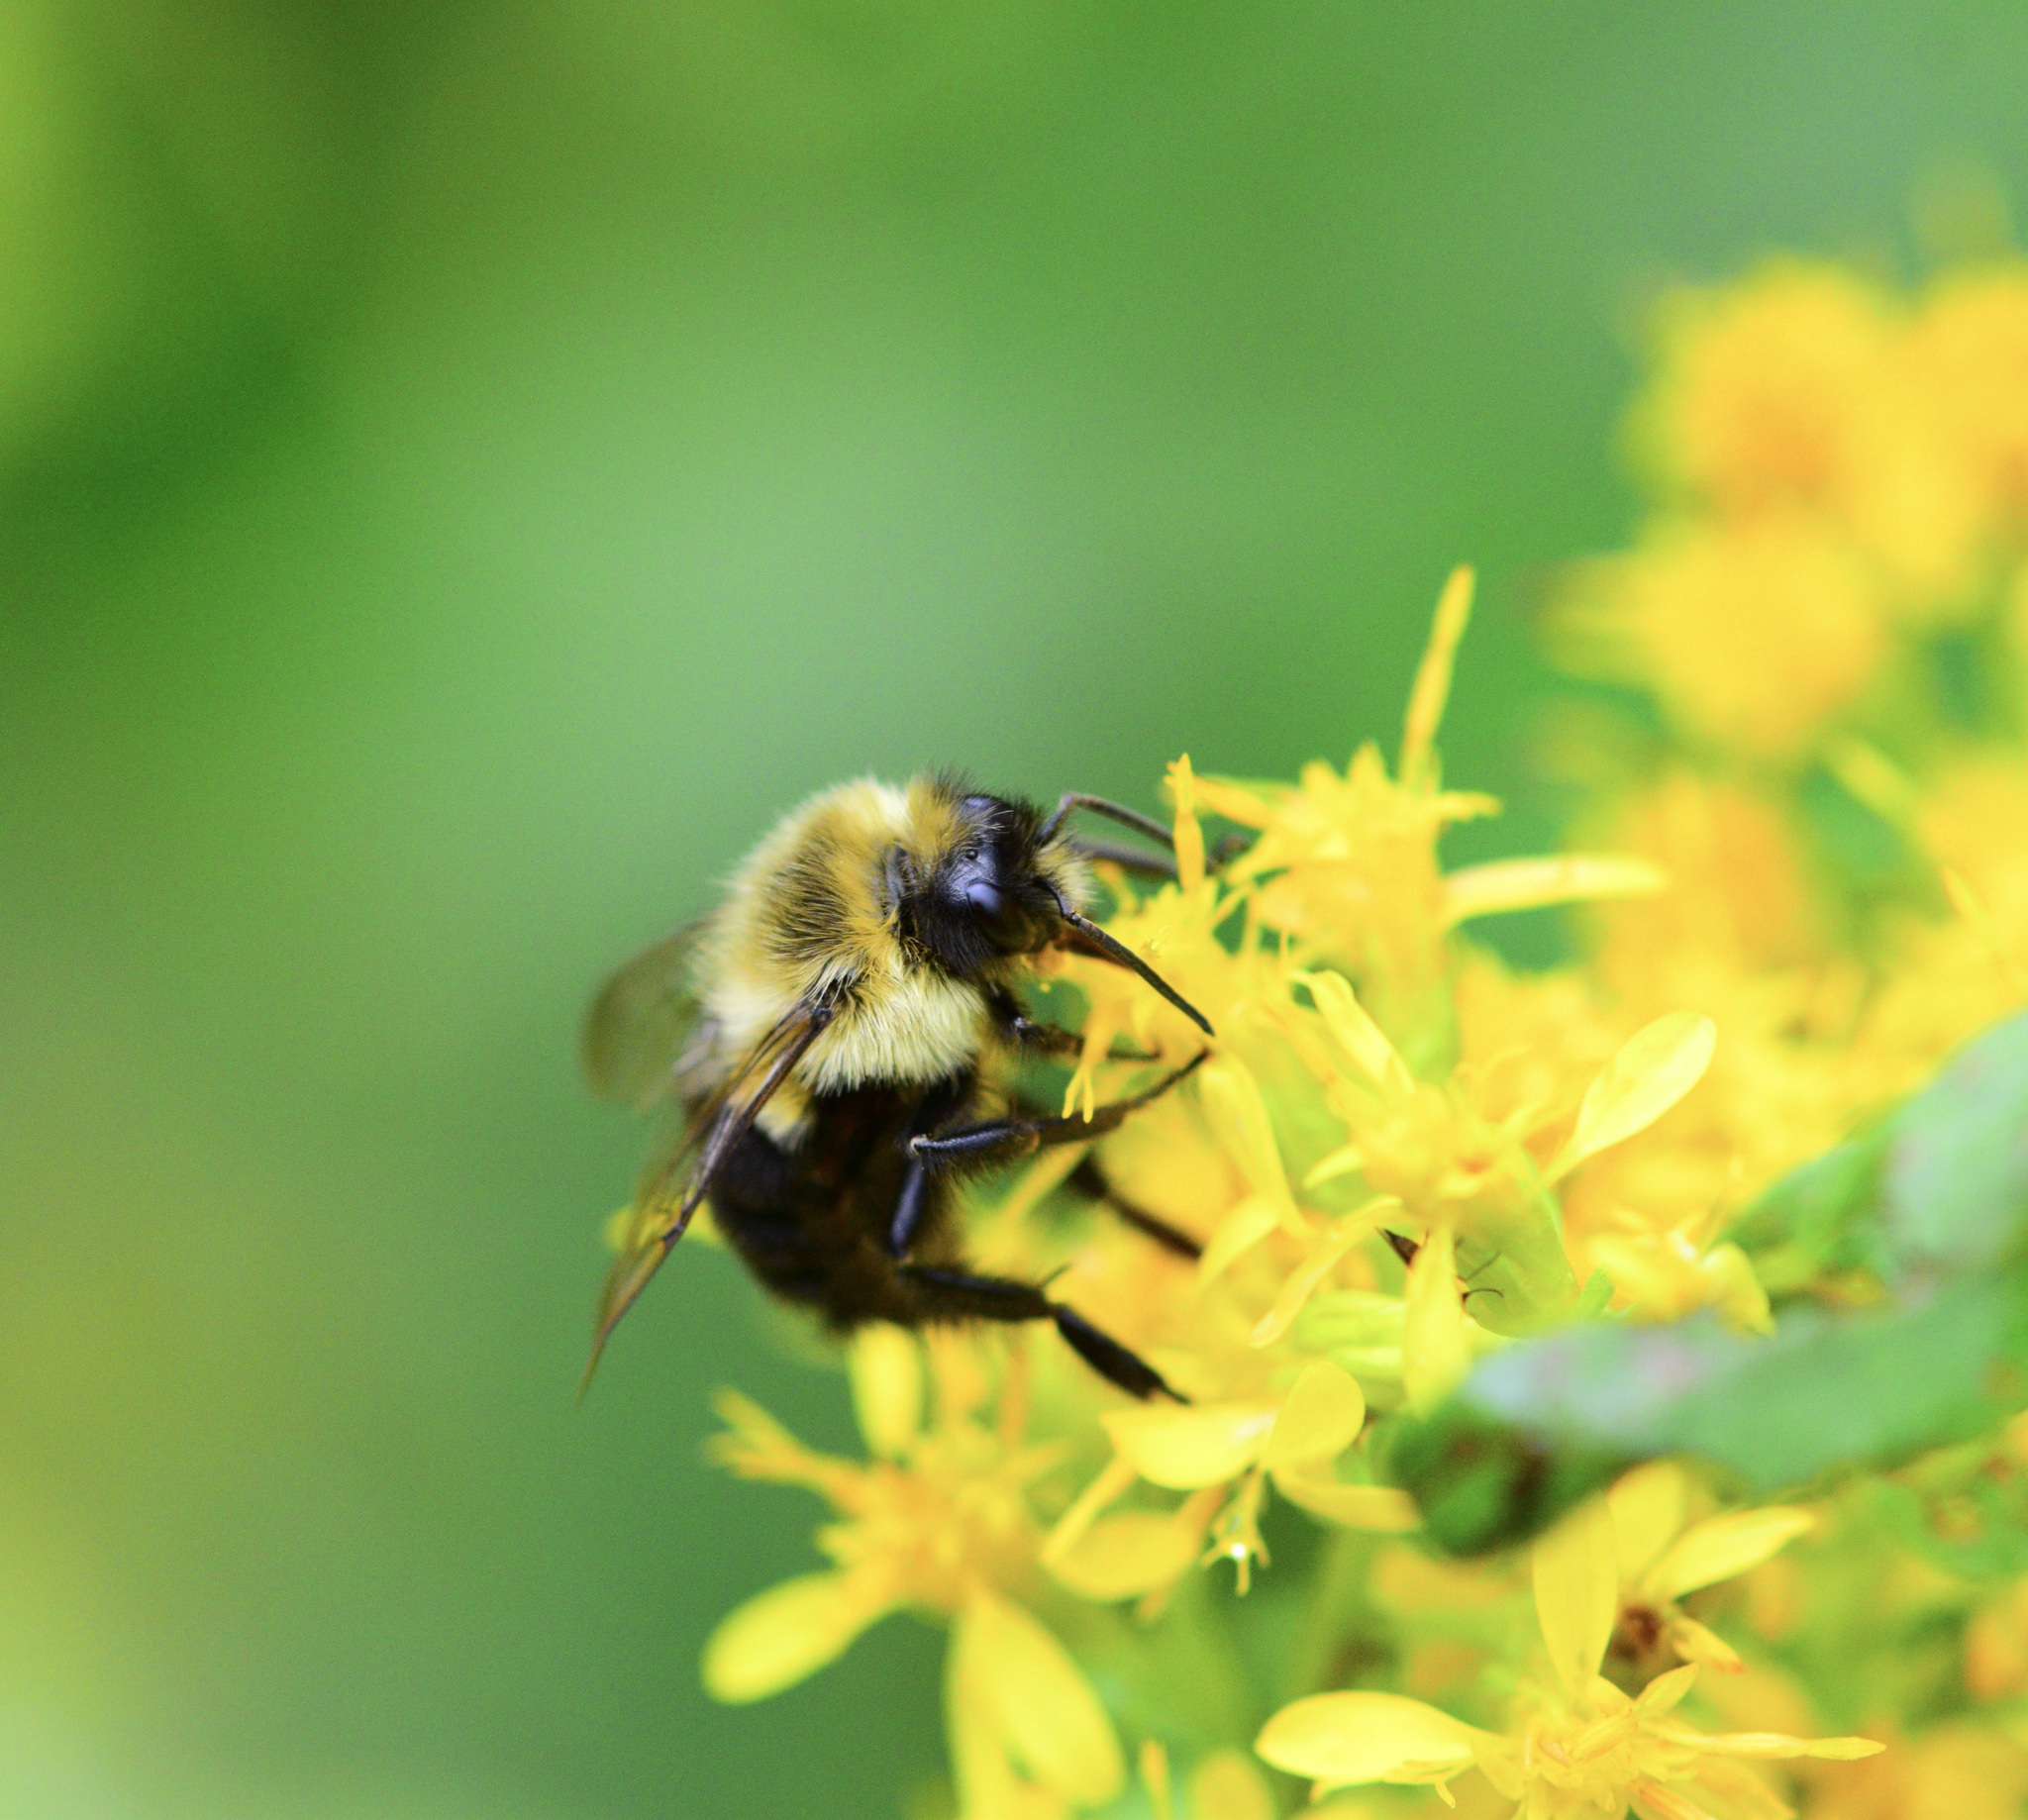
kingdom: Animalia
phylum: Arthropoda
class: Insecta
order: Hymenoptera
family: Apidae
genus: Bombus
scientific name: Bombus impatiens
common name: Common eastern bumble bee
